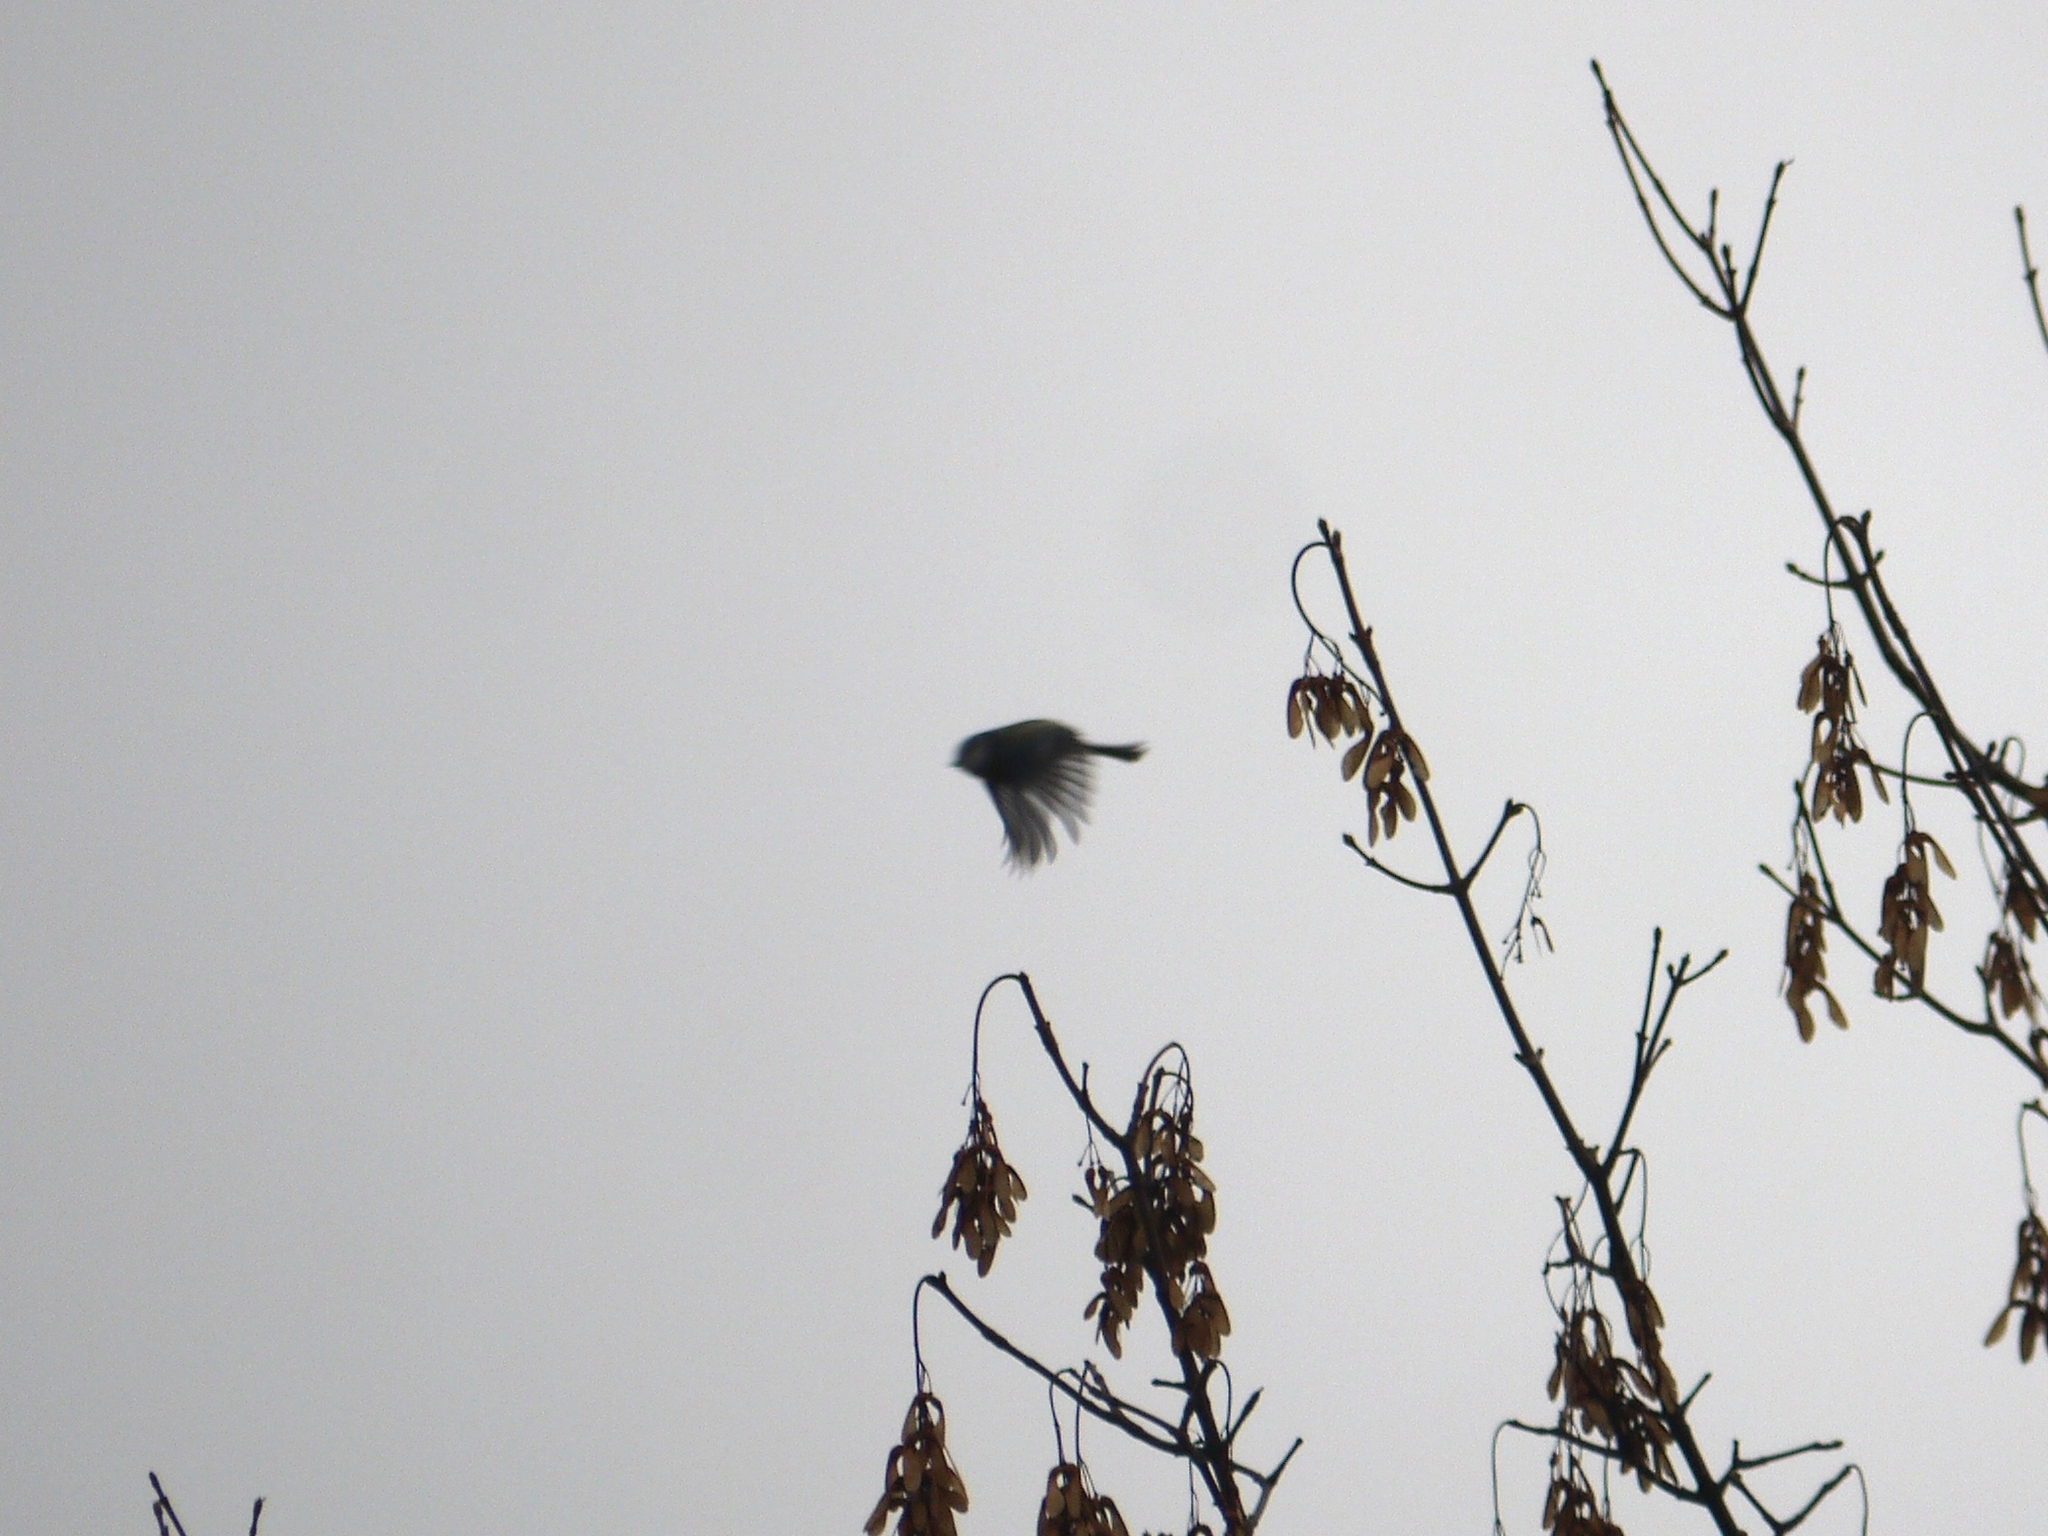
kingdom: Animalia
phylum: Chordata
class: Aves
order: Passeriformes
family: Paridae
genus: Cyanistes
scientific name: Cyanistes caeruleus
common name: Eurasian blue tit
